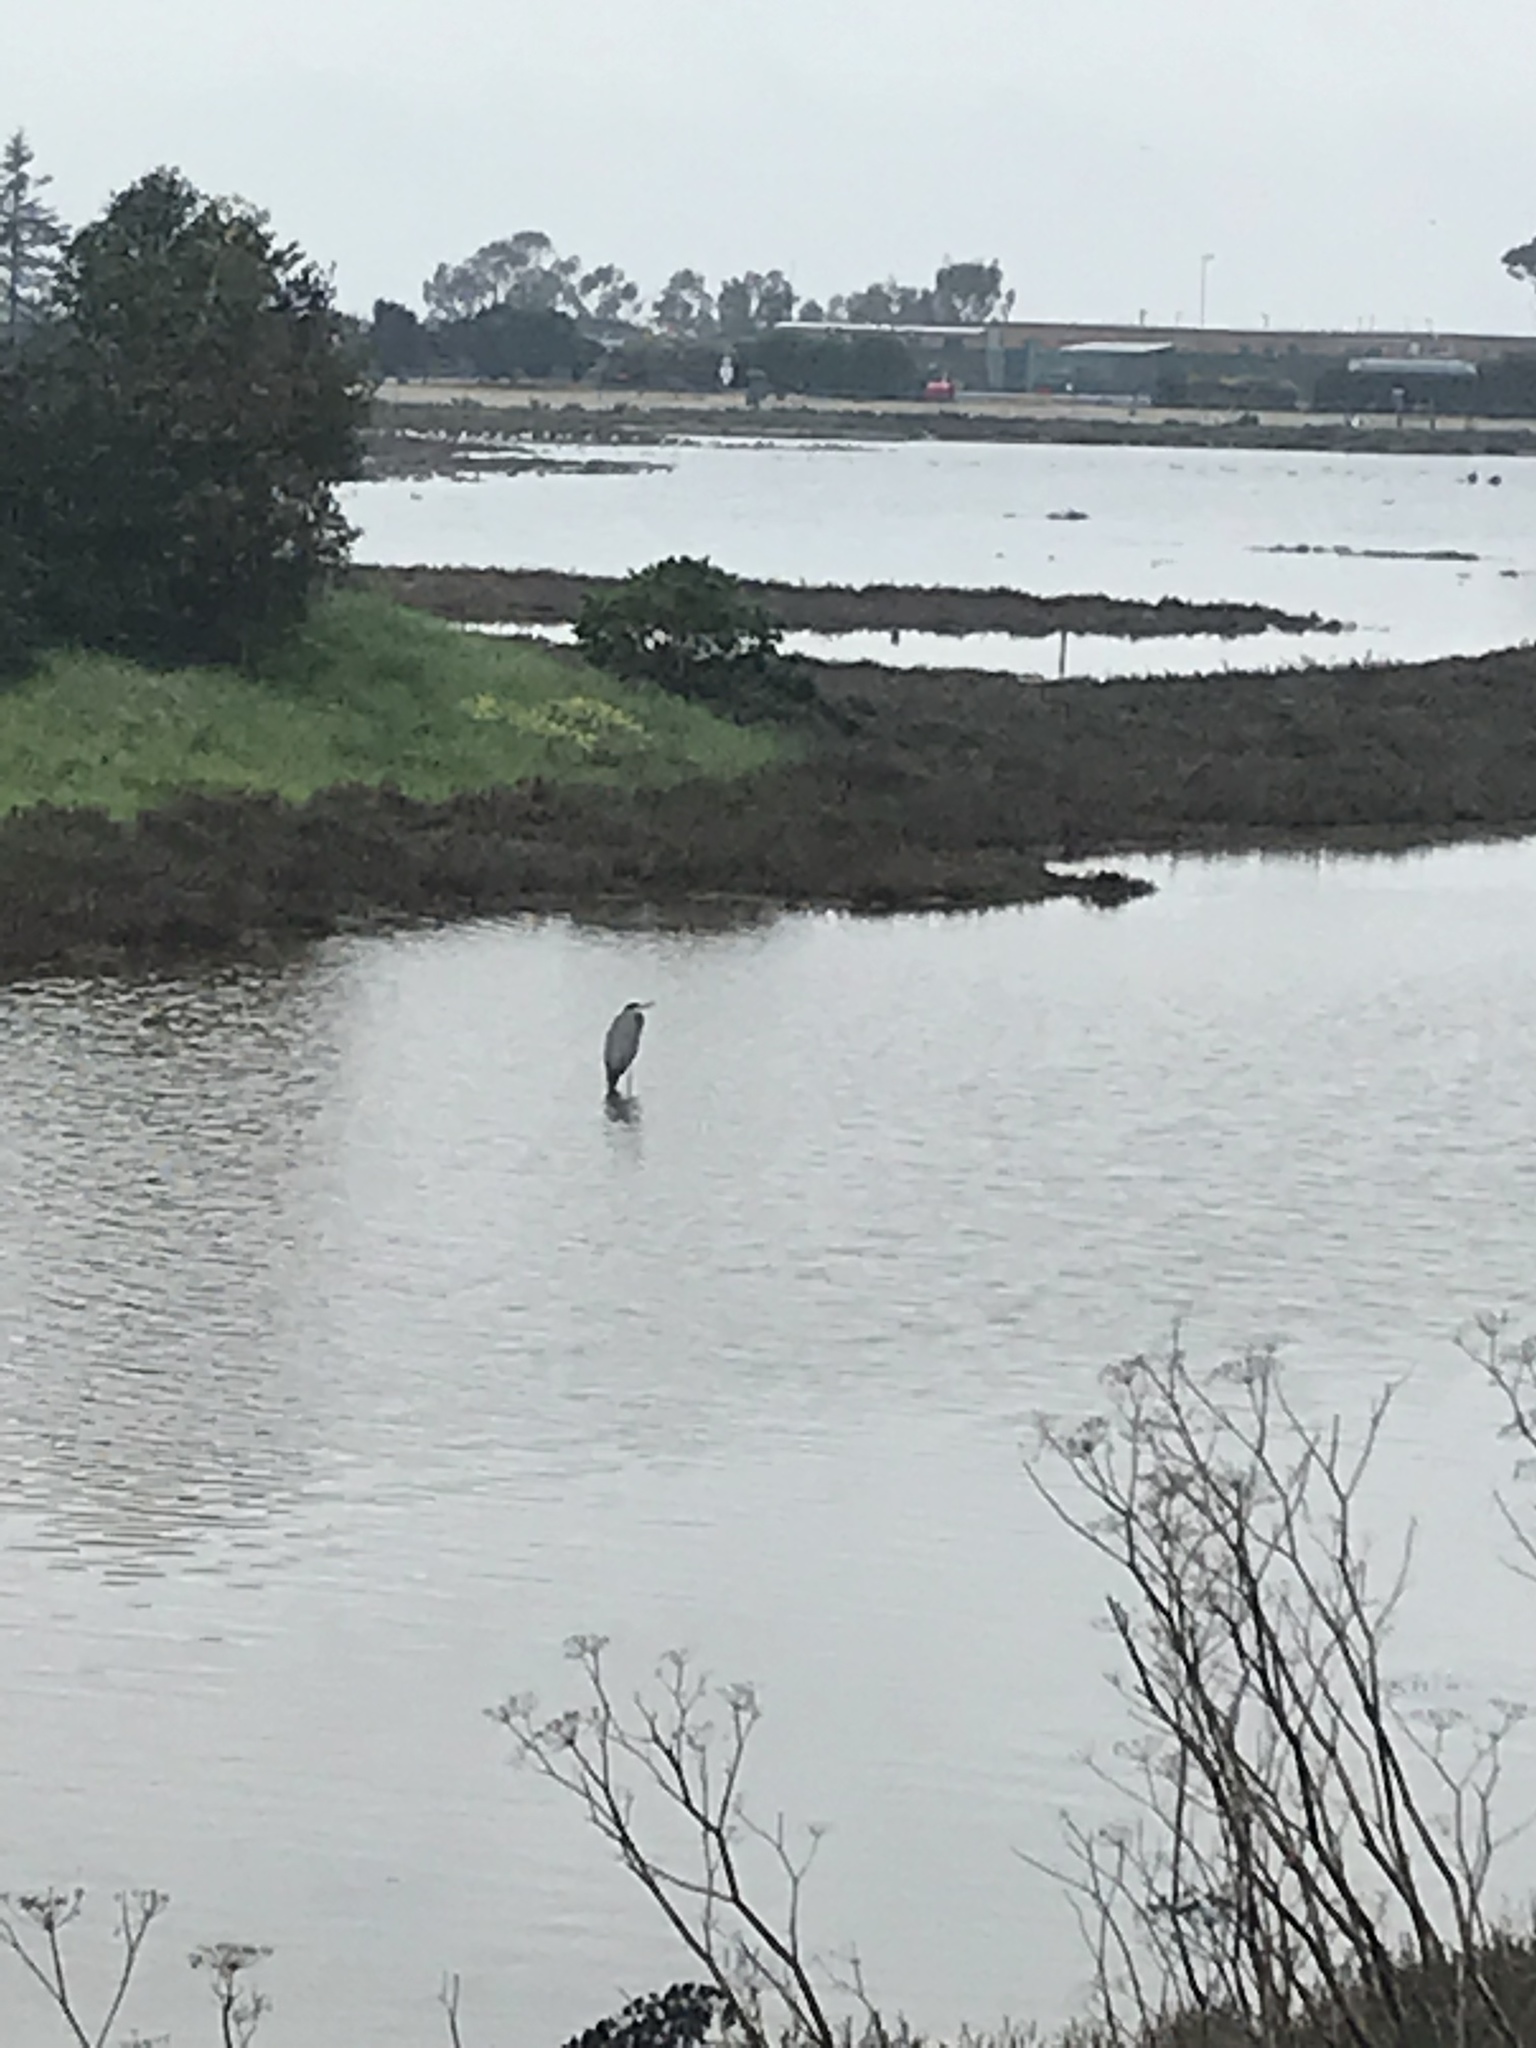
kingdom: Animalia
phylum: Chordata
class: Aves
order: Pelecaniformes
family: Ardeidae
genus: Ardea
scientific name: Ardea herodias
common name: Great blue heron
